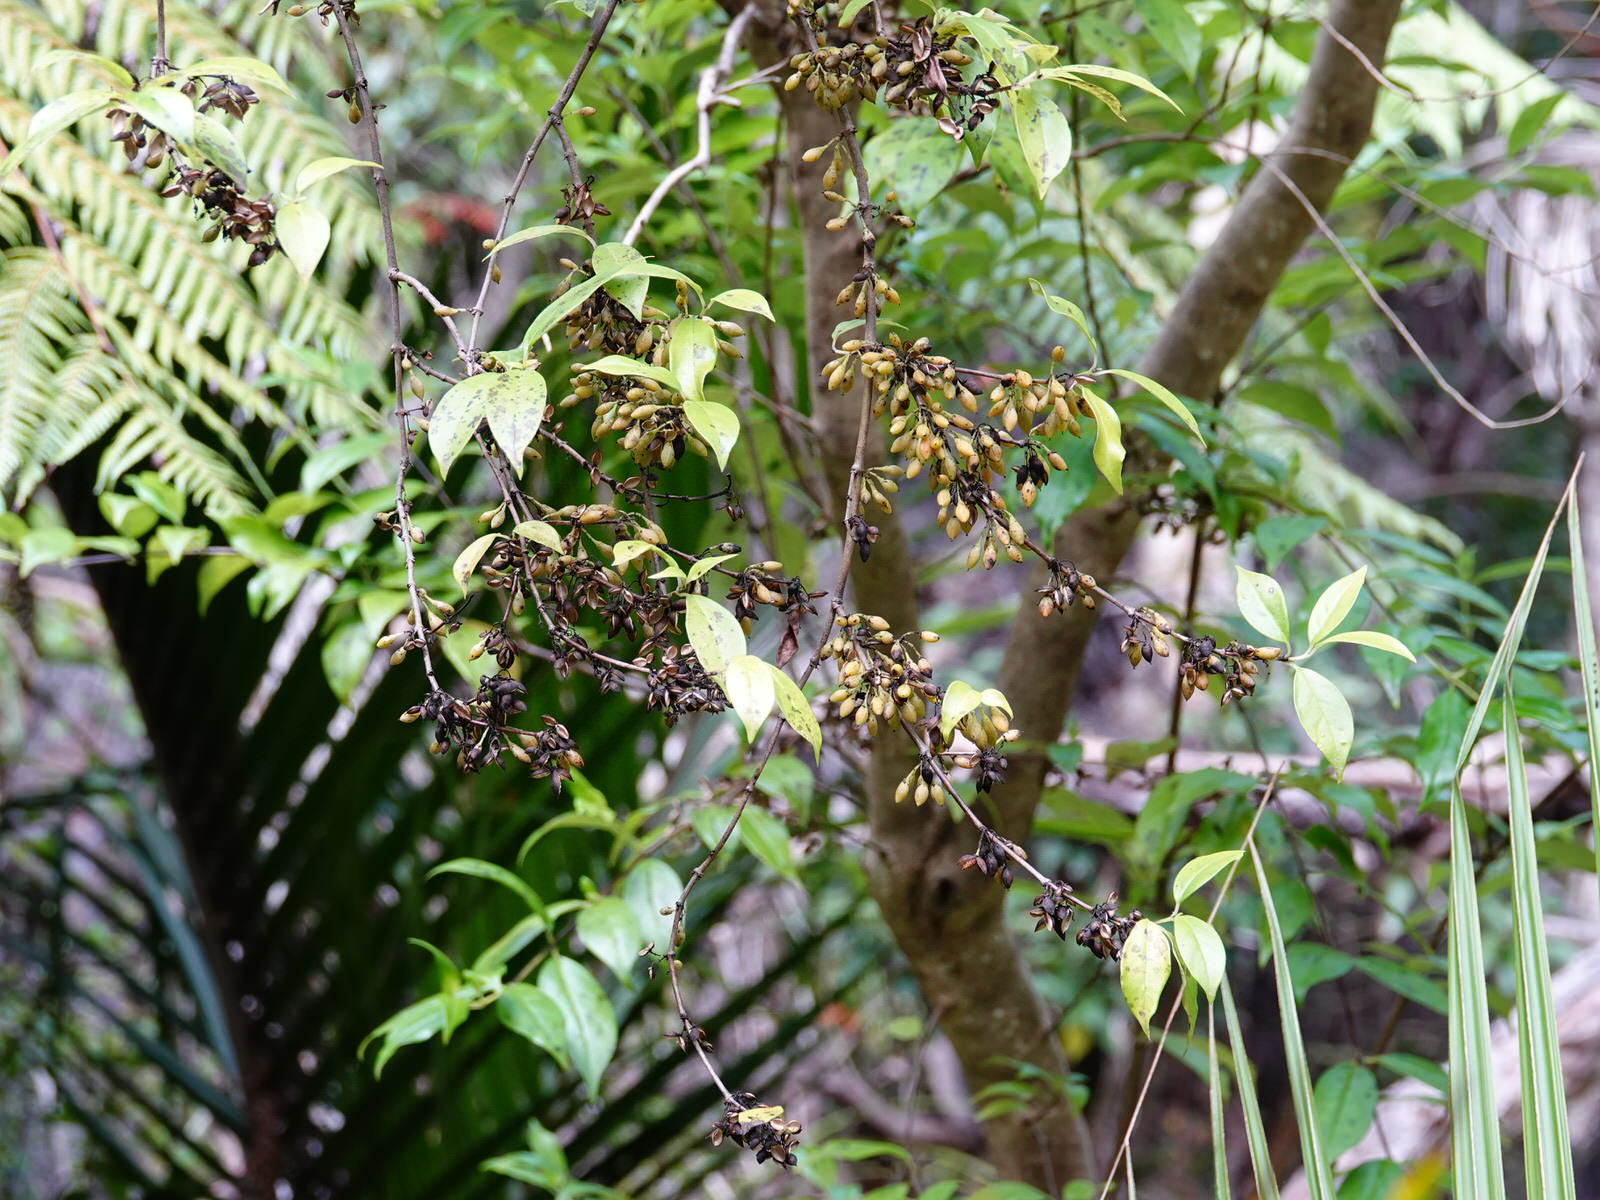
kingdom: Plantae
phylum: Tracheophyta
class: Magnoliopsida
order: Gentianales
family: Loganiaceae
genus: Geniostoma
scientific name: Geniostoma ligustrifolium
